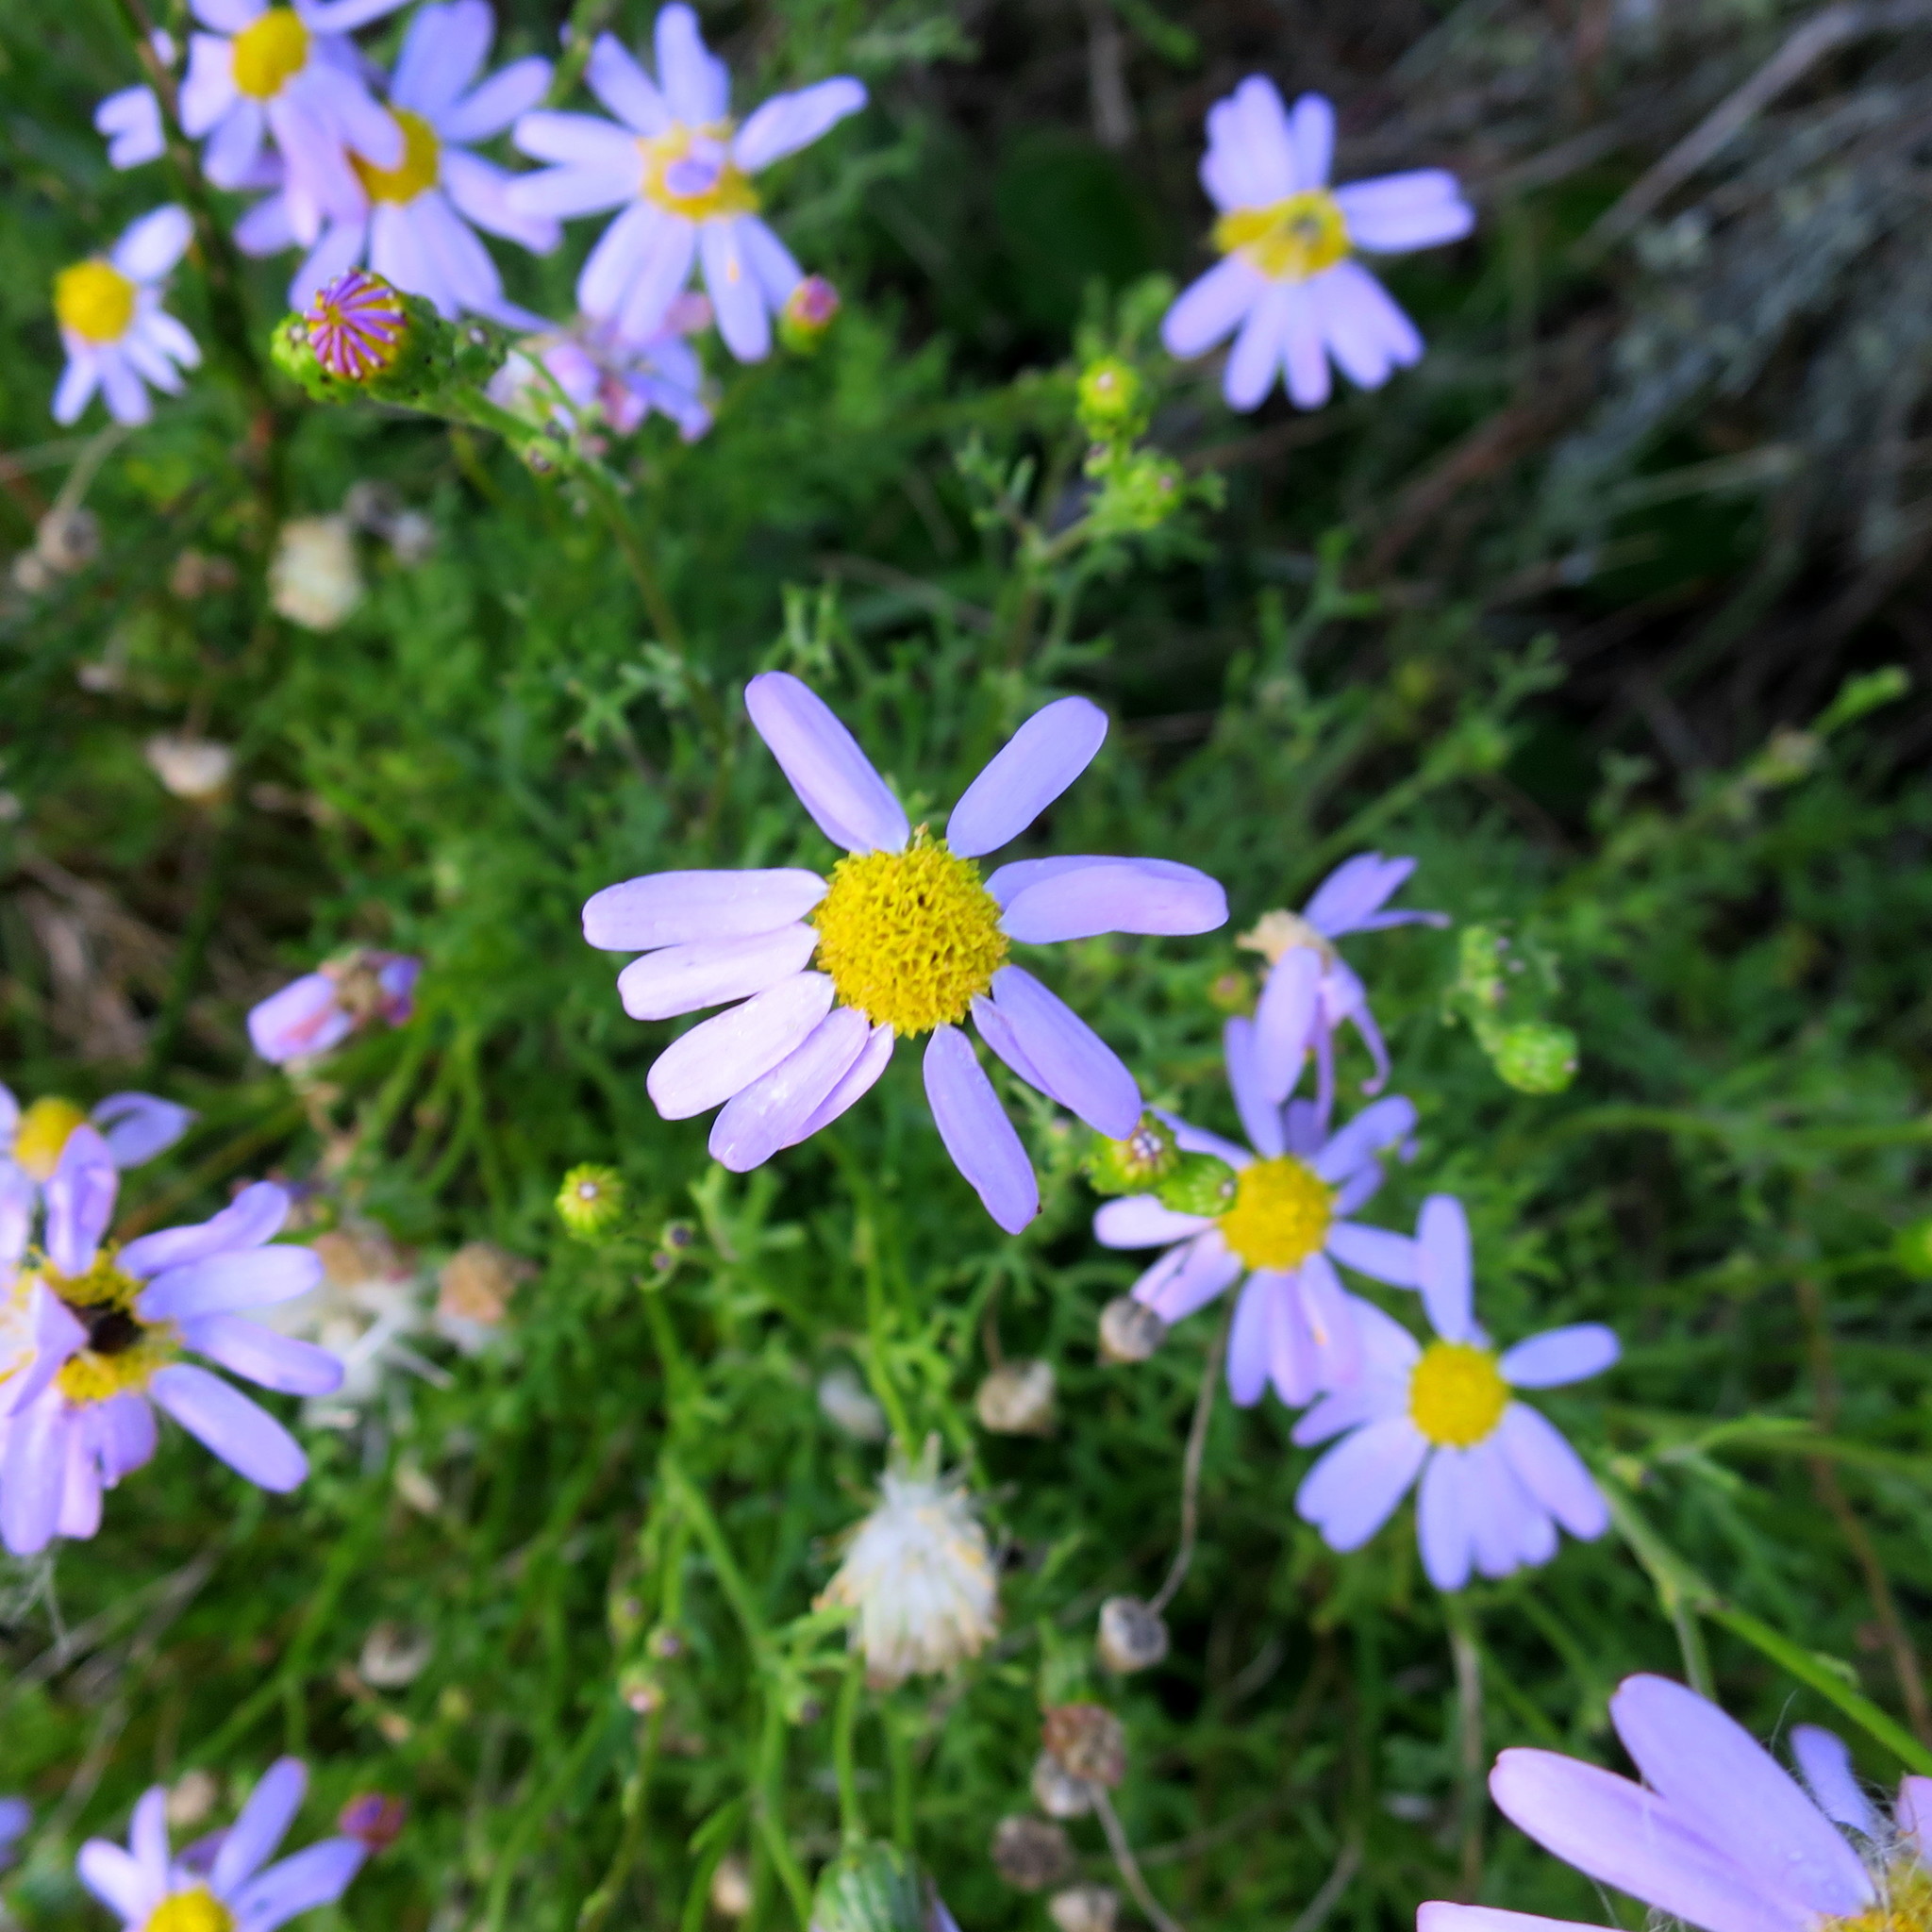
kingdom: Plantae
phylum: Tracheophyta
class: Magnoliopsida
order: Asterales
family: Asteraceae
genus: Senecio
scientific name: Senecio elegans
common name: Purple groundsel
